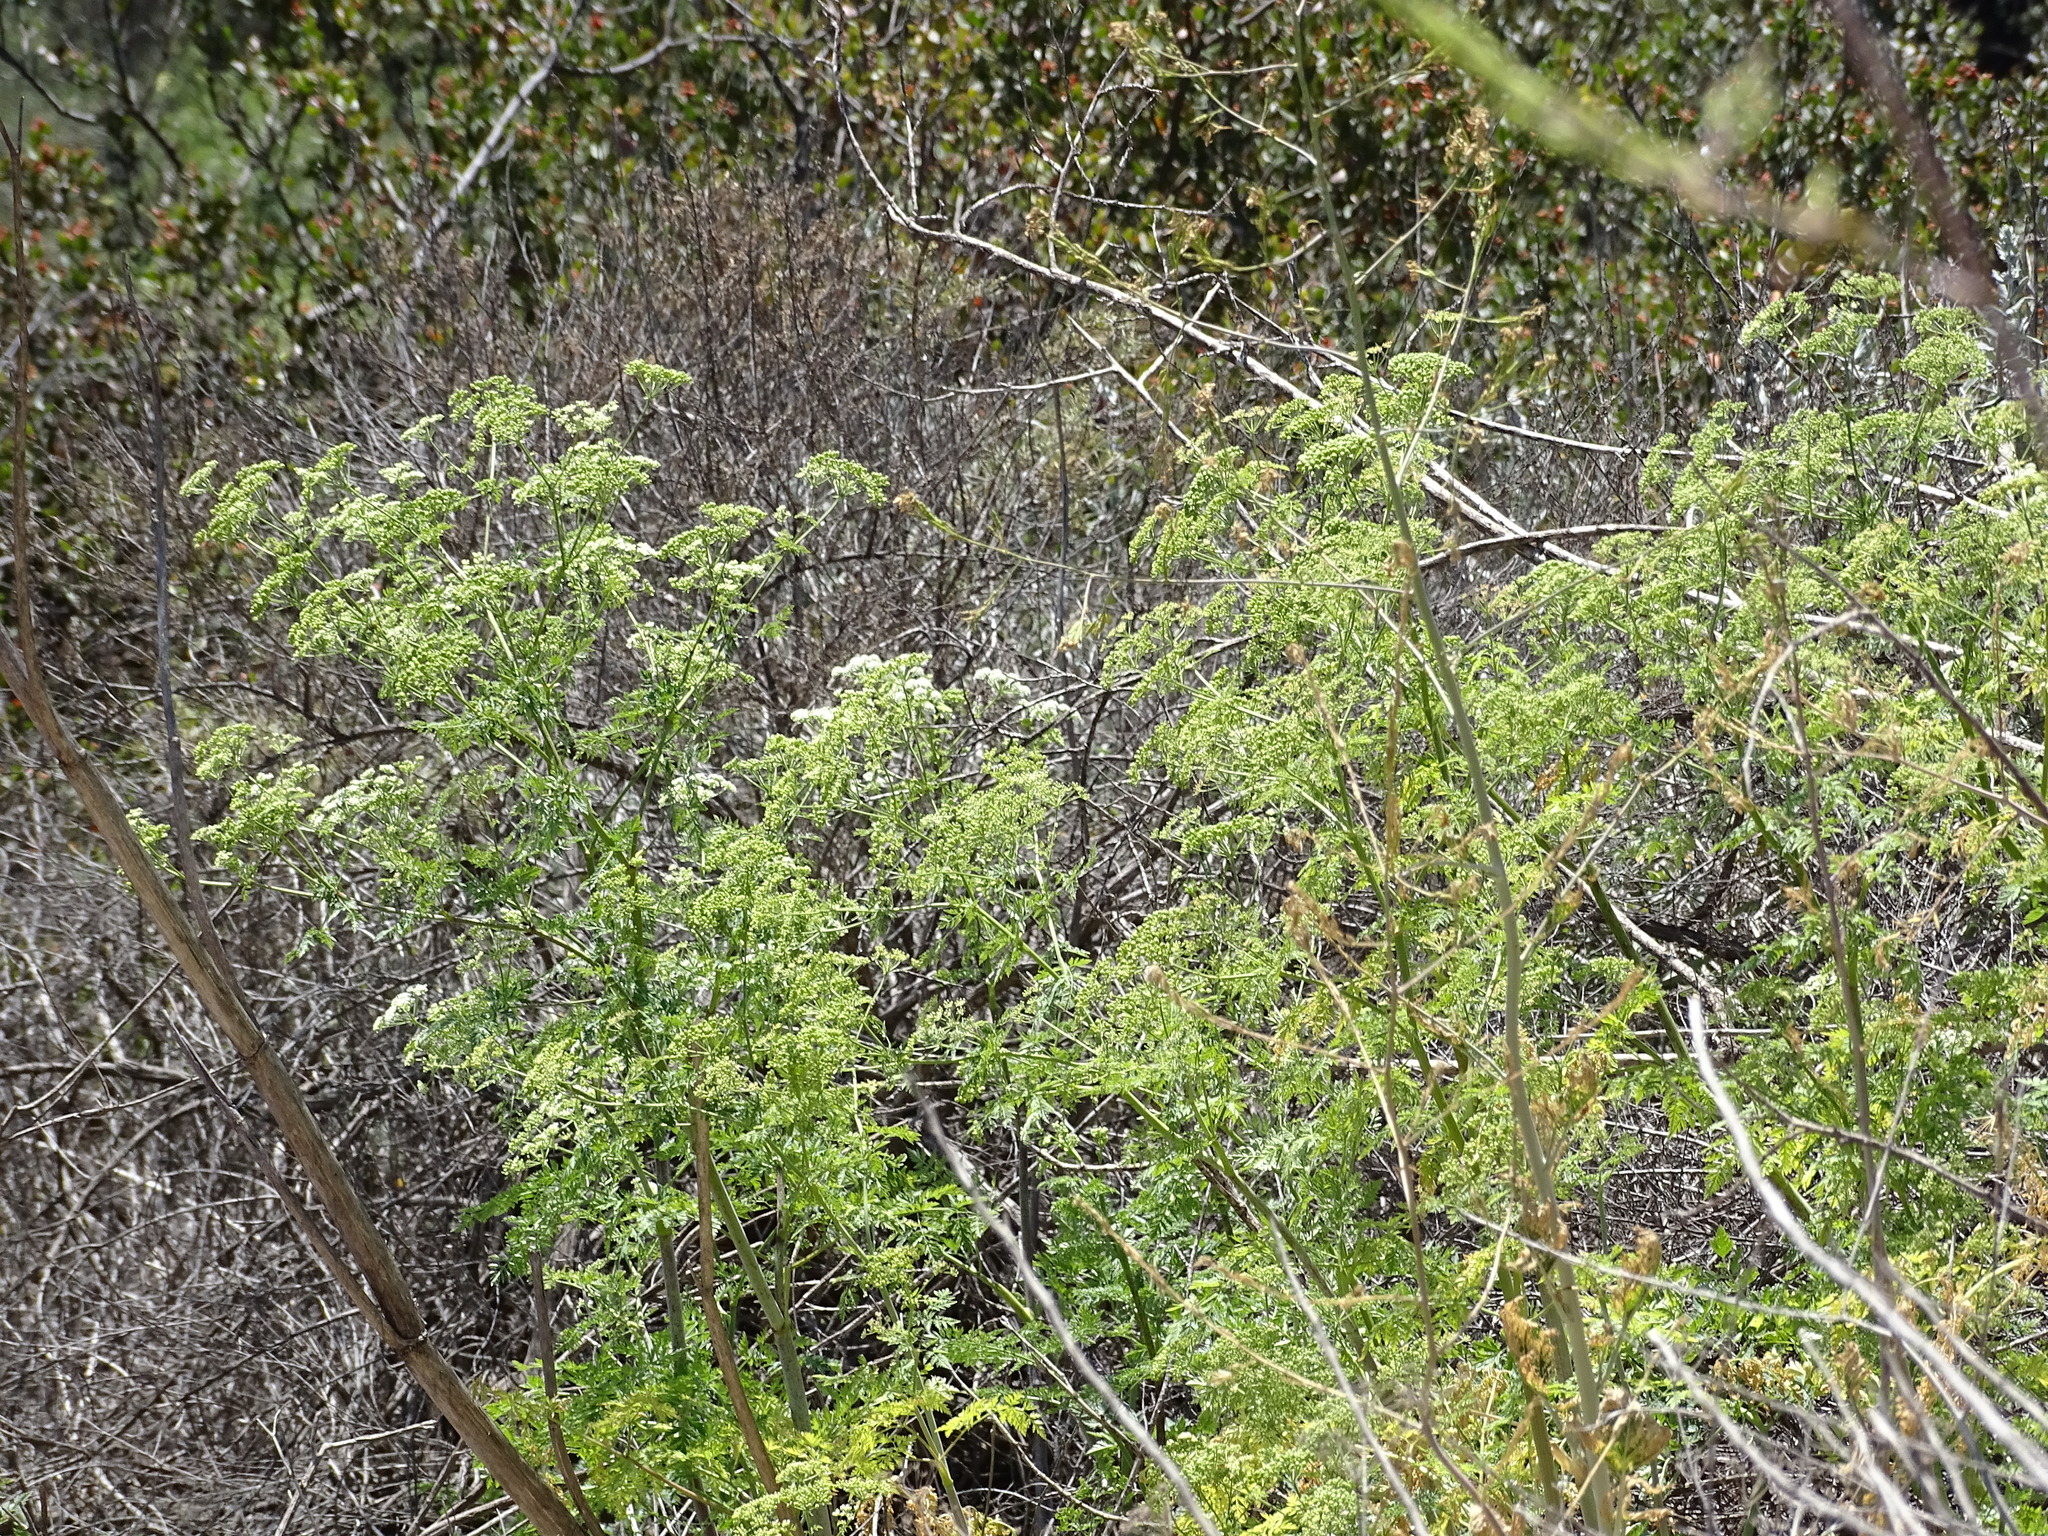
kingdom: Plantae
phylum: Tracheophyta
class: Magnoliopsida
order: Apiales
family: Apiaceae
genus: Conium
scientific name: Conium maculatum
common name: Hemlock
